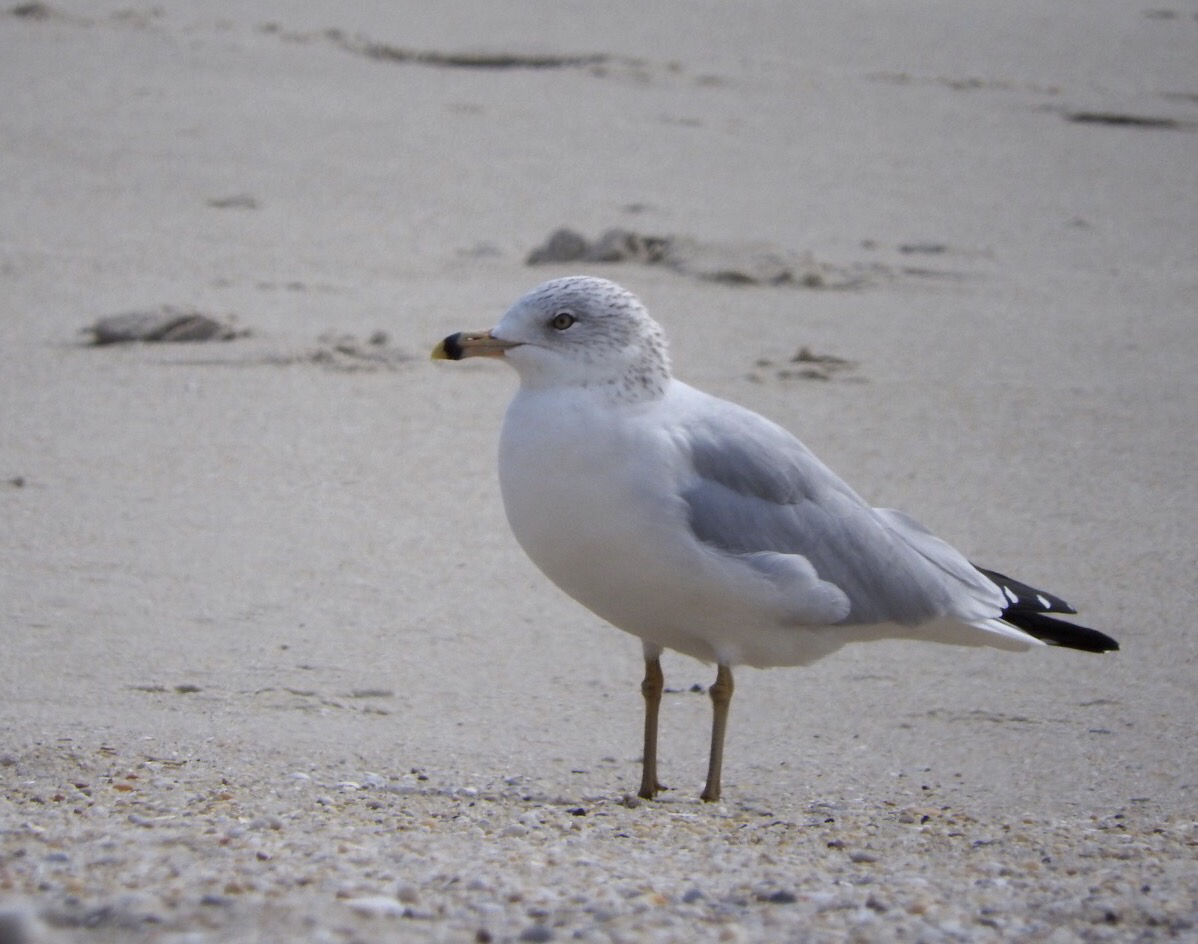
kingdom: Animalia
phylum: Chordata
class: Aves
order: Charadriiformes
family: Laridae
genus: Larus
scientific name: Larus delawarensis
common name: Ring-billed gull
